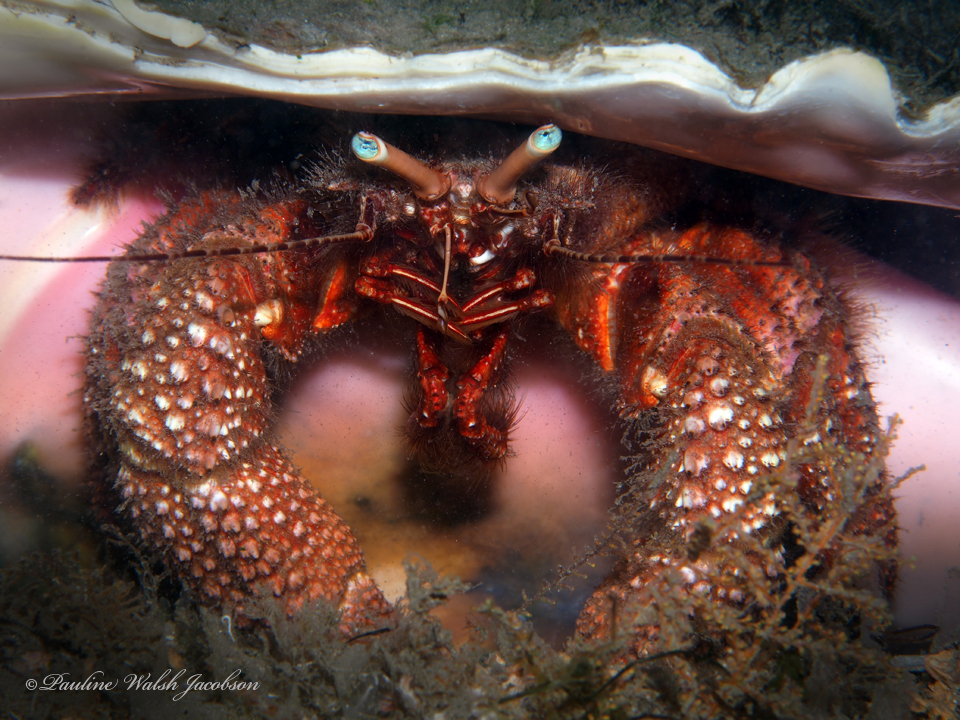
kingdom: Animalia
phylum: Arthropoda
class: Malacostraca
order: Decapoda
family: Diogenidae
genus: Petrochirus
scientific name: Petrochirus diogenes
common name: Giant hermit crab
